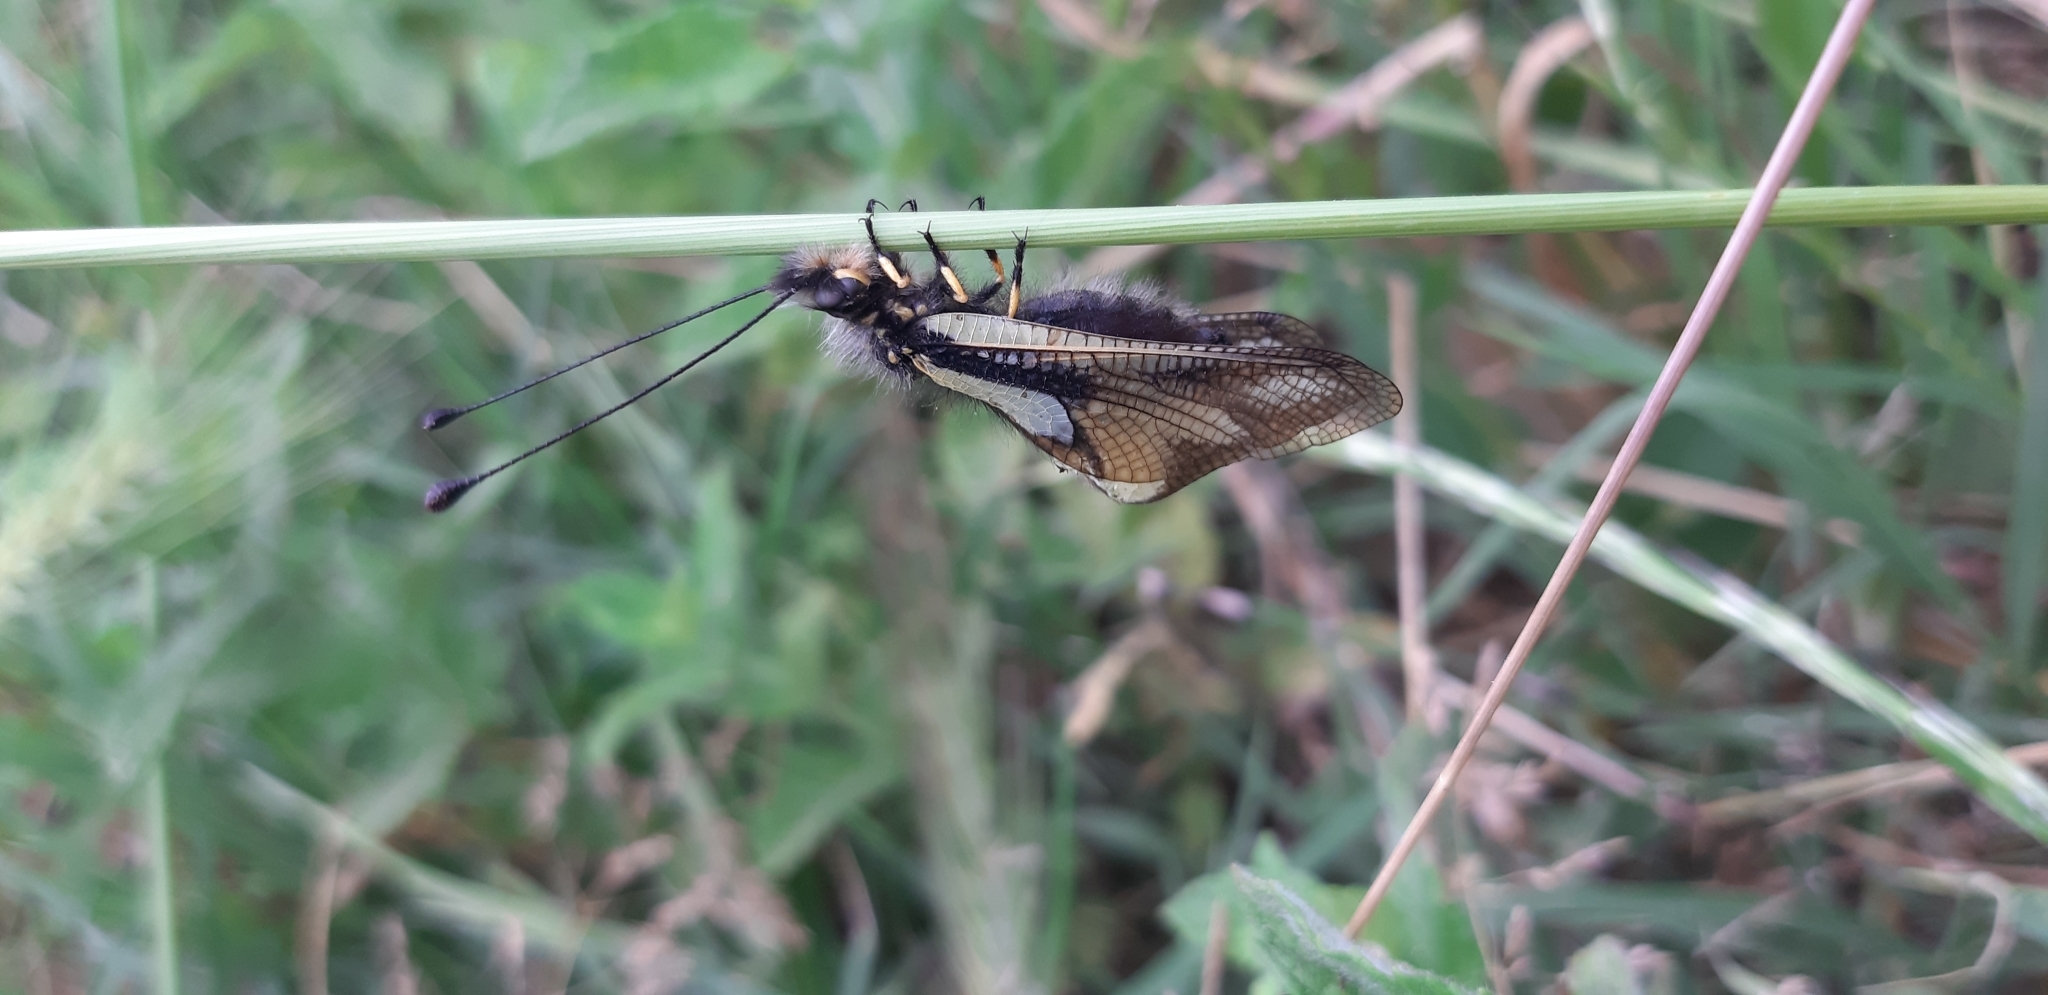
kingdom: Animalia
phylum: Arthropoda
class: Insecta
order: Neuroptera
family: Ascalaphidae
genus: Libelloides
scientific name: Libelloides coccajus
